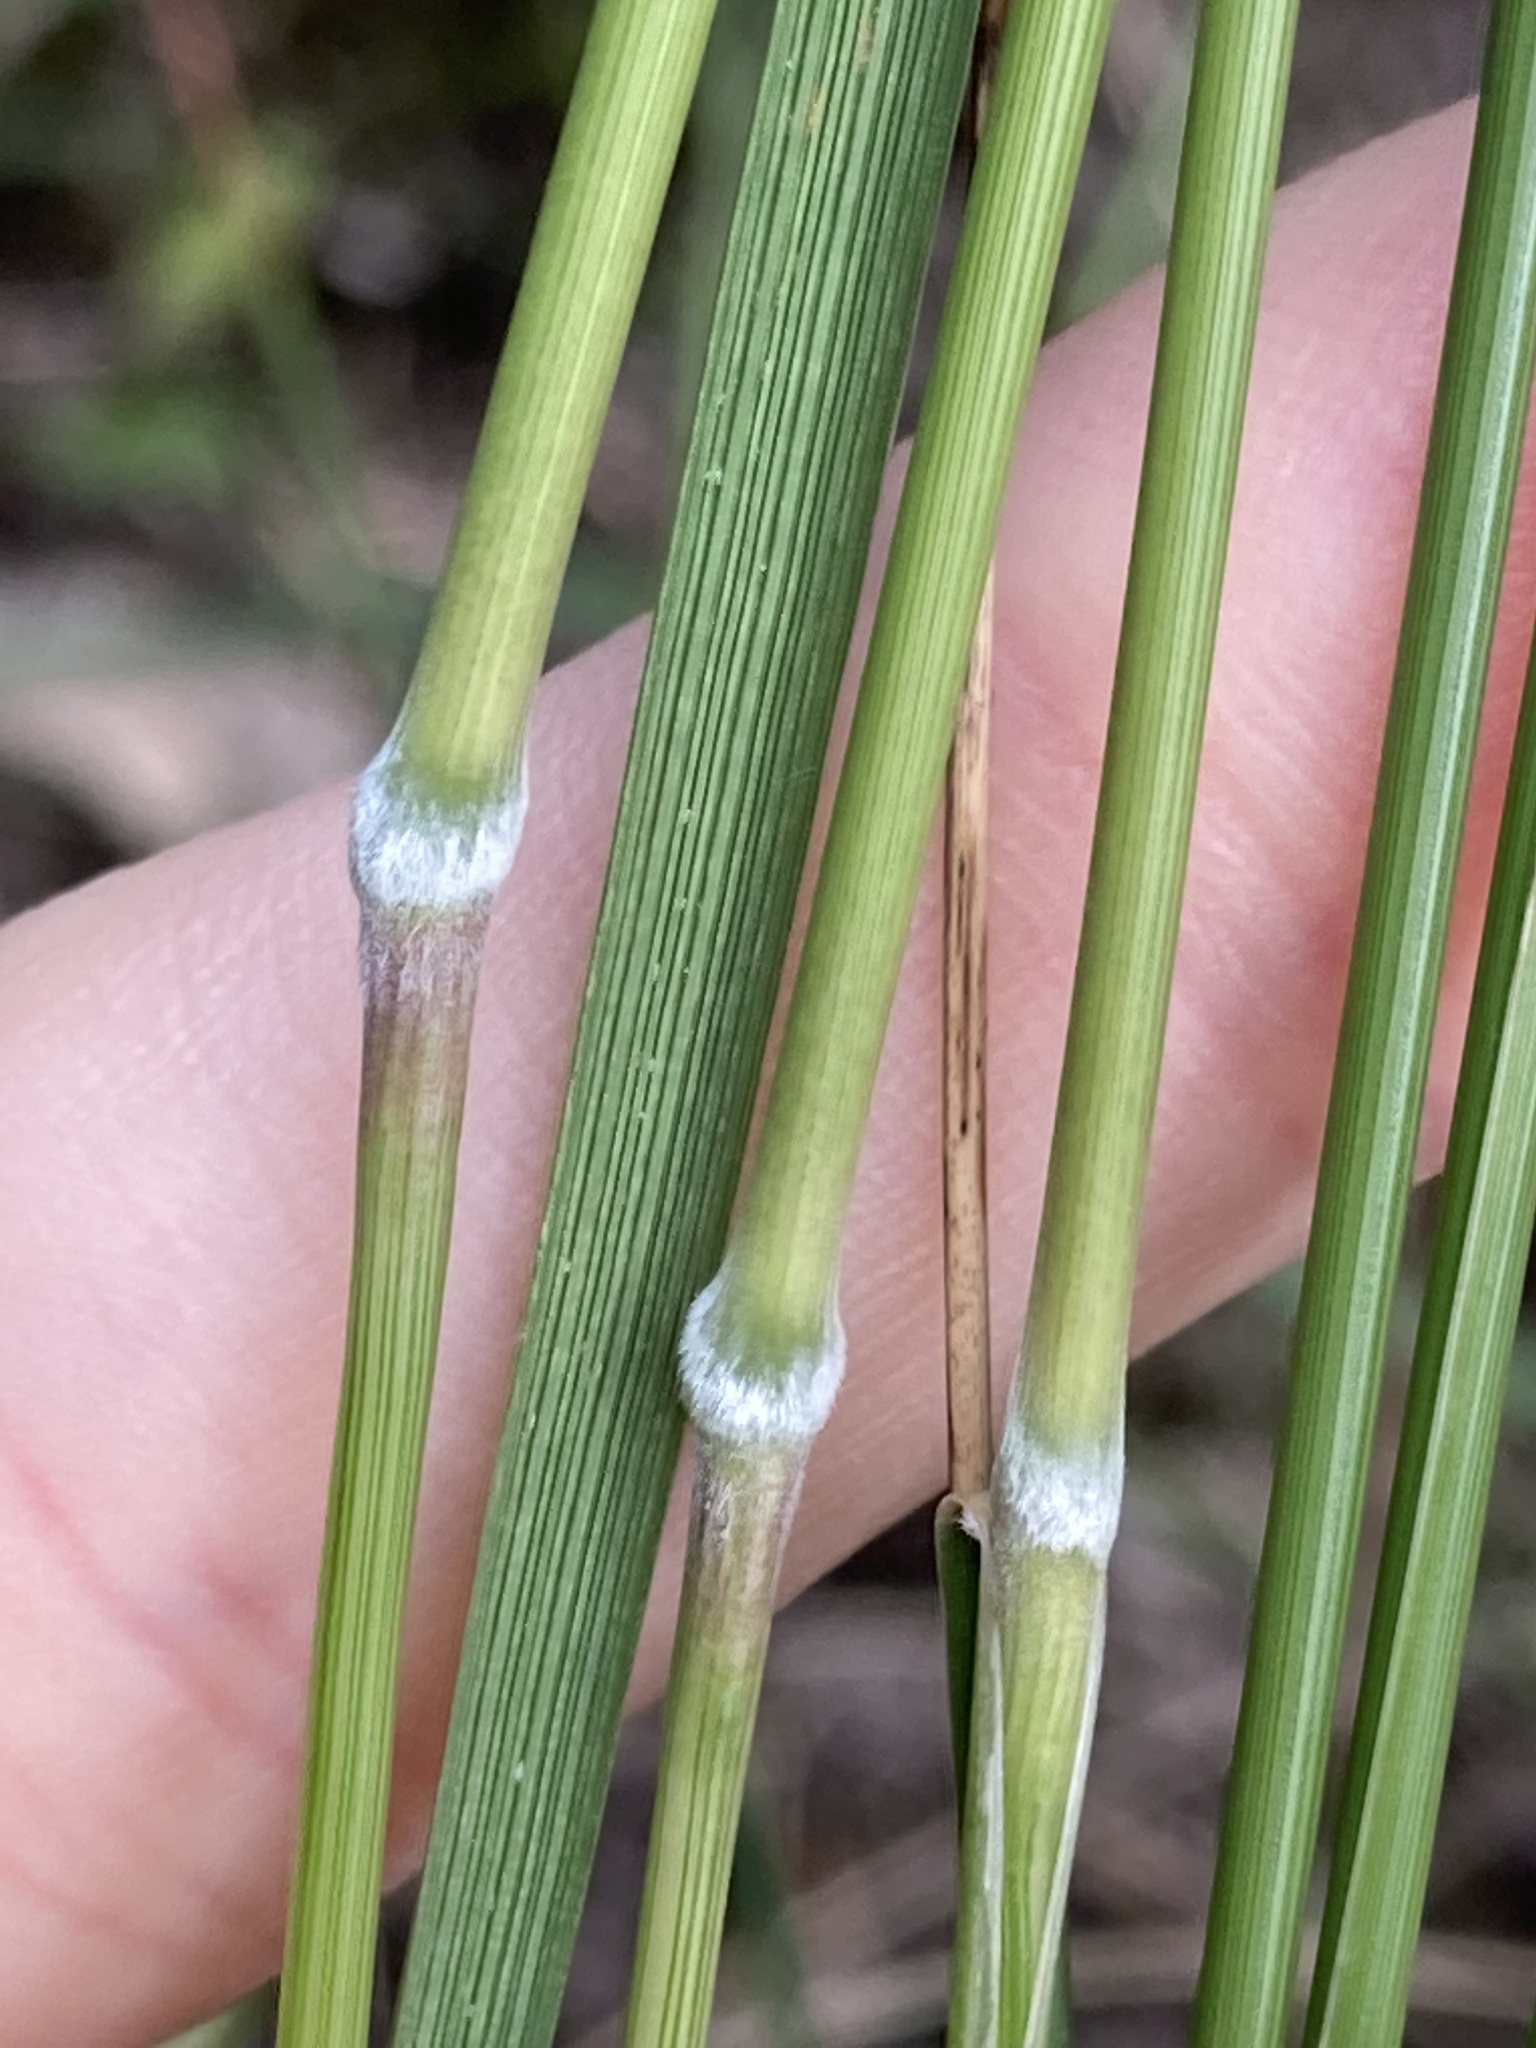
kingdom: Plantae
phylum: Tracheophyta
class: Liliopsida
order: Poales
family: Poaceae
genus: Austrostipa
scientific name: Austrostipa rudis
